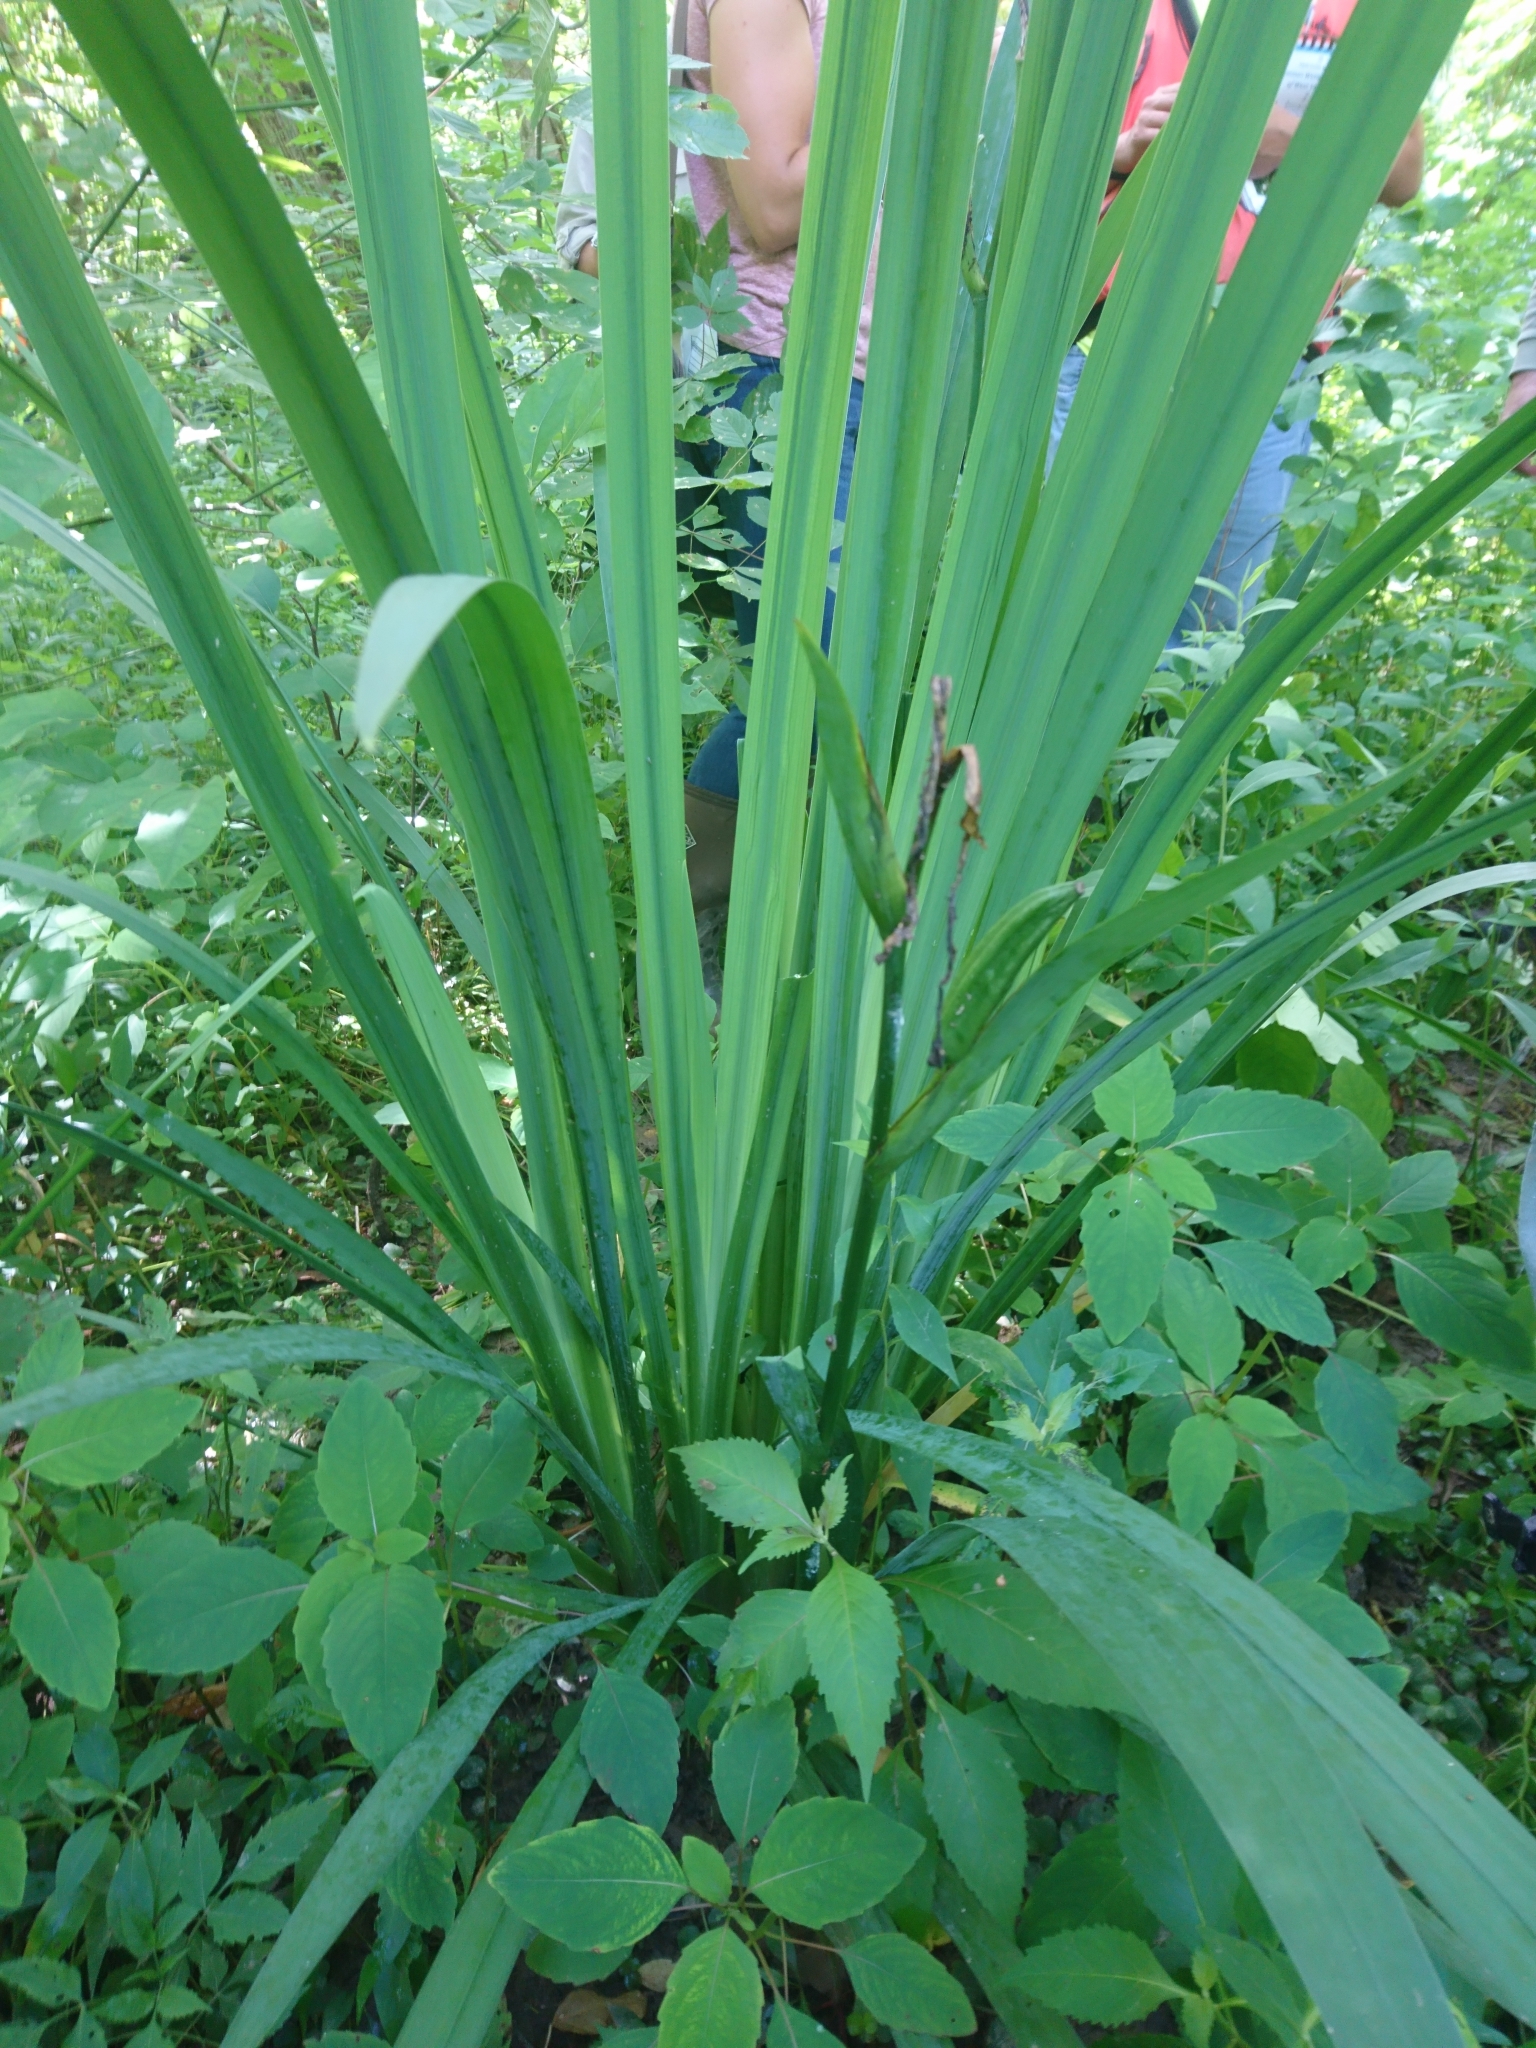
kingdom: Plantae
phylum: Tracheophyta
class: Liliopsida
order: Asparagales
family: Iridaceae
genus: Iris
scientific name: Iris pseudacorus
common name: Yellow flag
